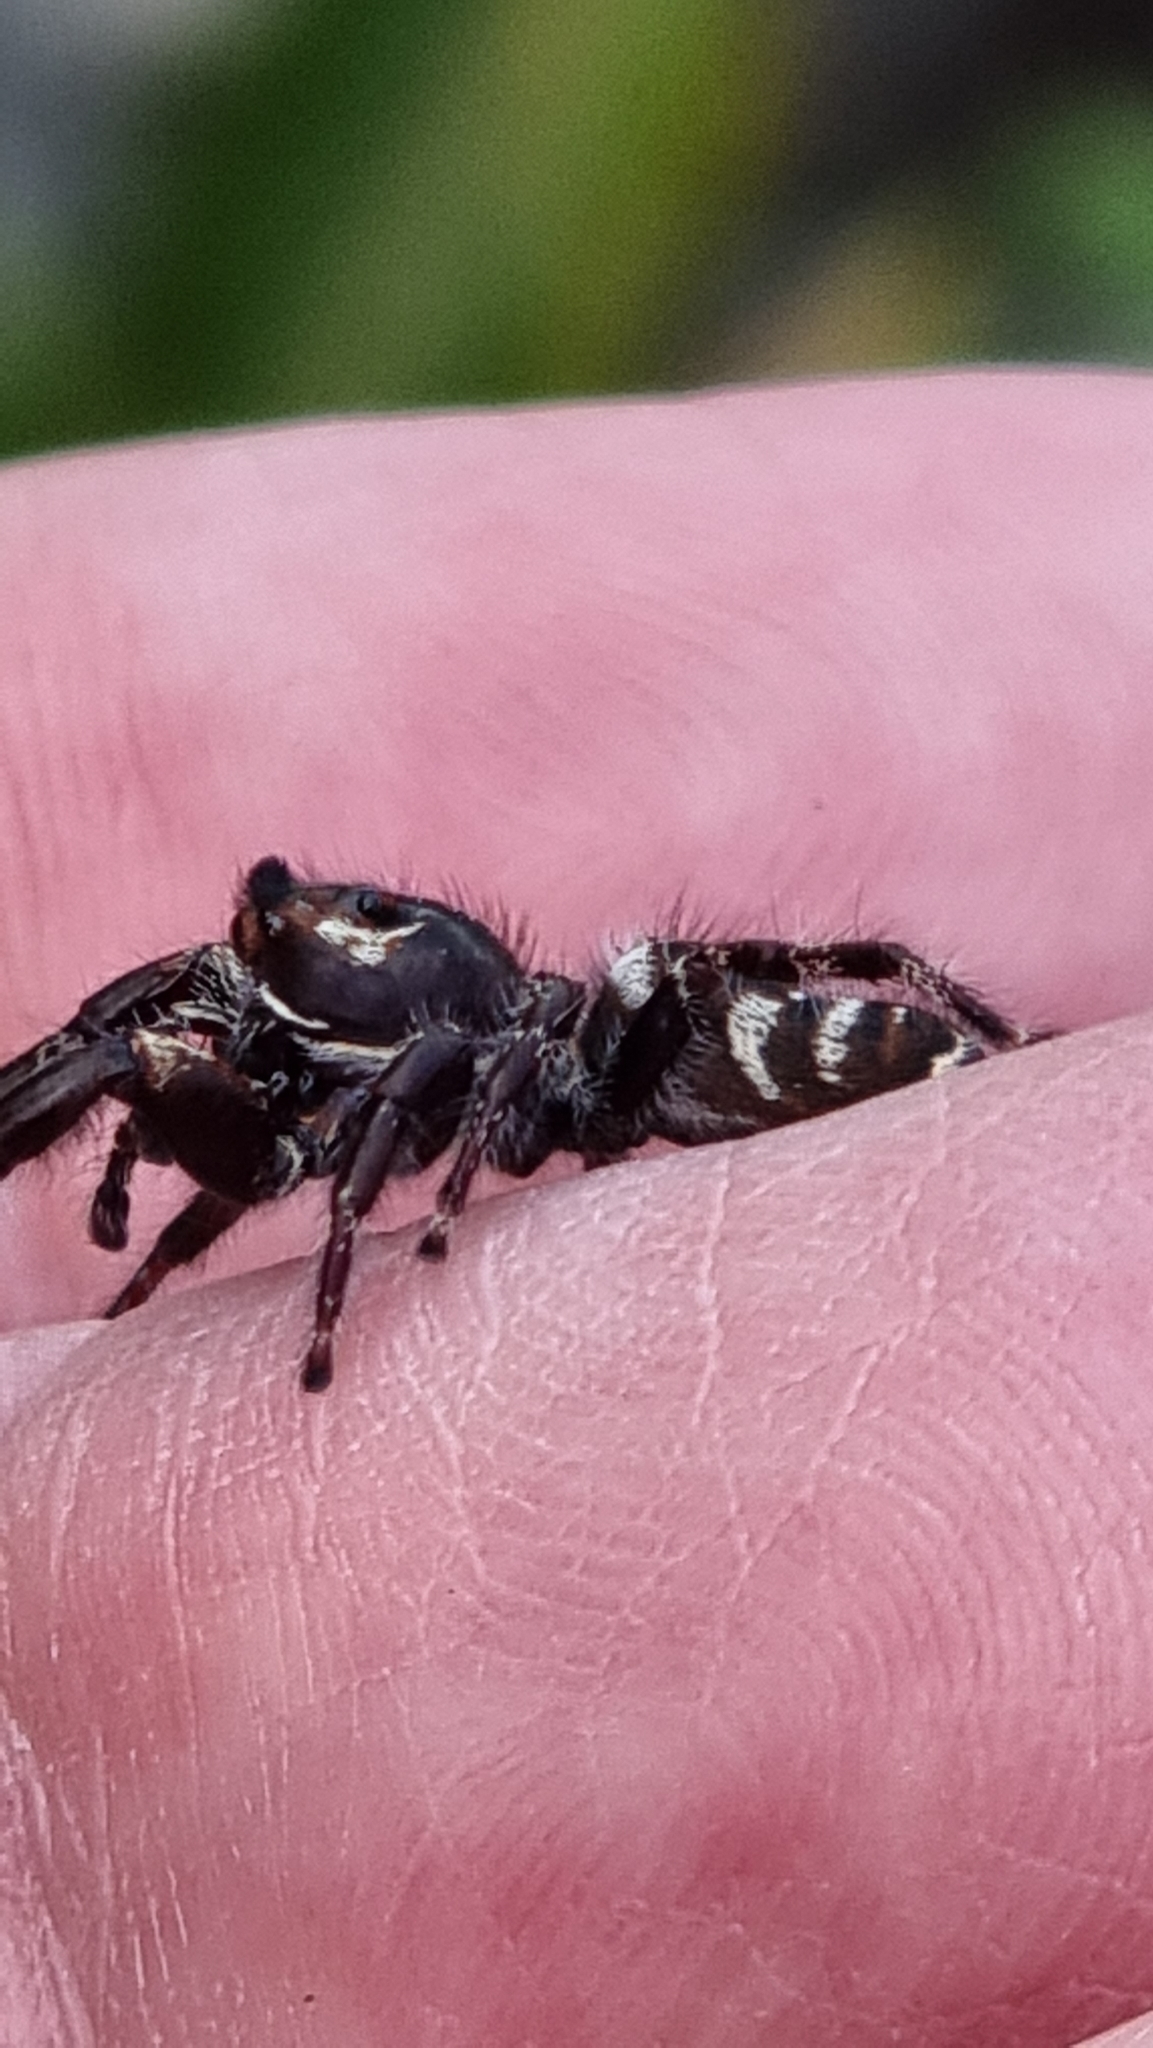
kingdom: Animalia
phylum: Arthropoda
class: Arachnida
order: Araneae
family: Salticidae
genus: Sandalodes
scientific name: Sandalodes superbus
